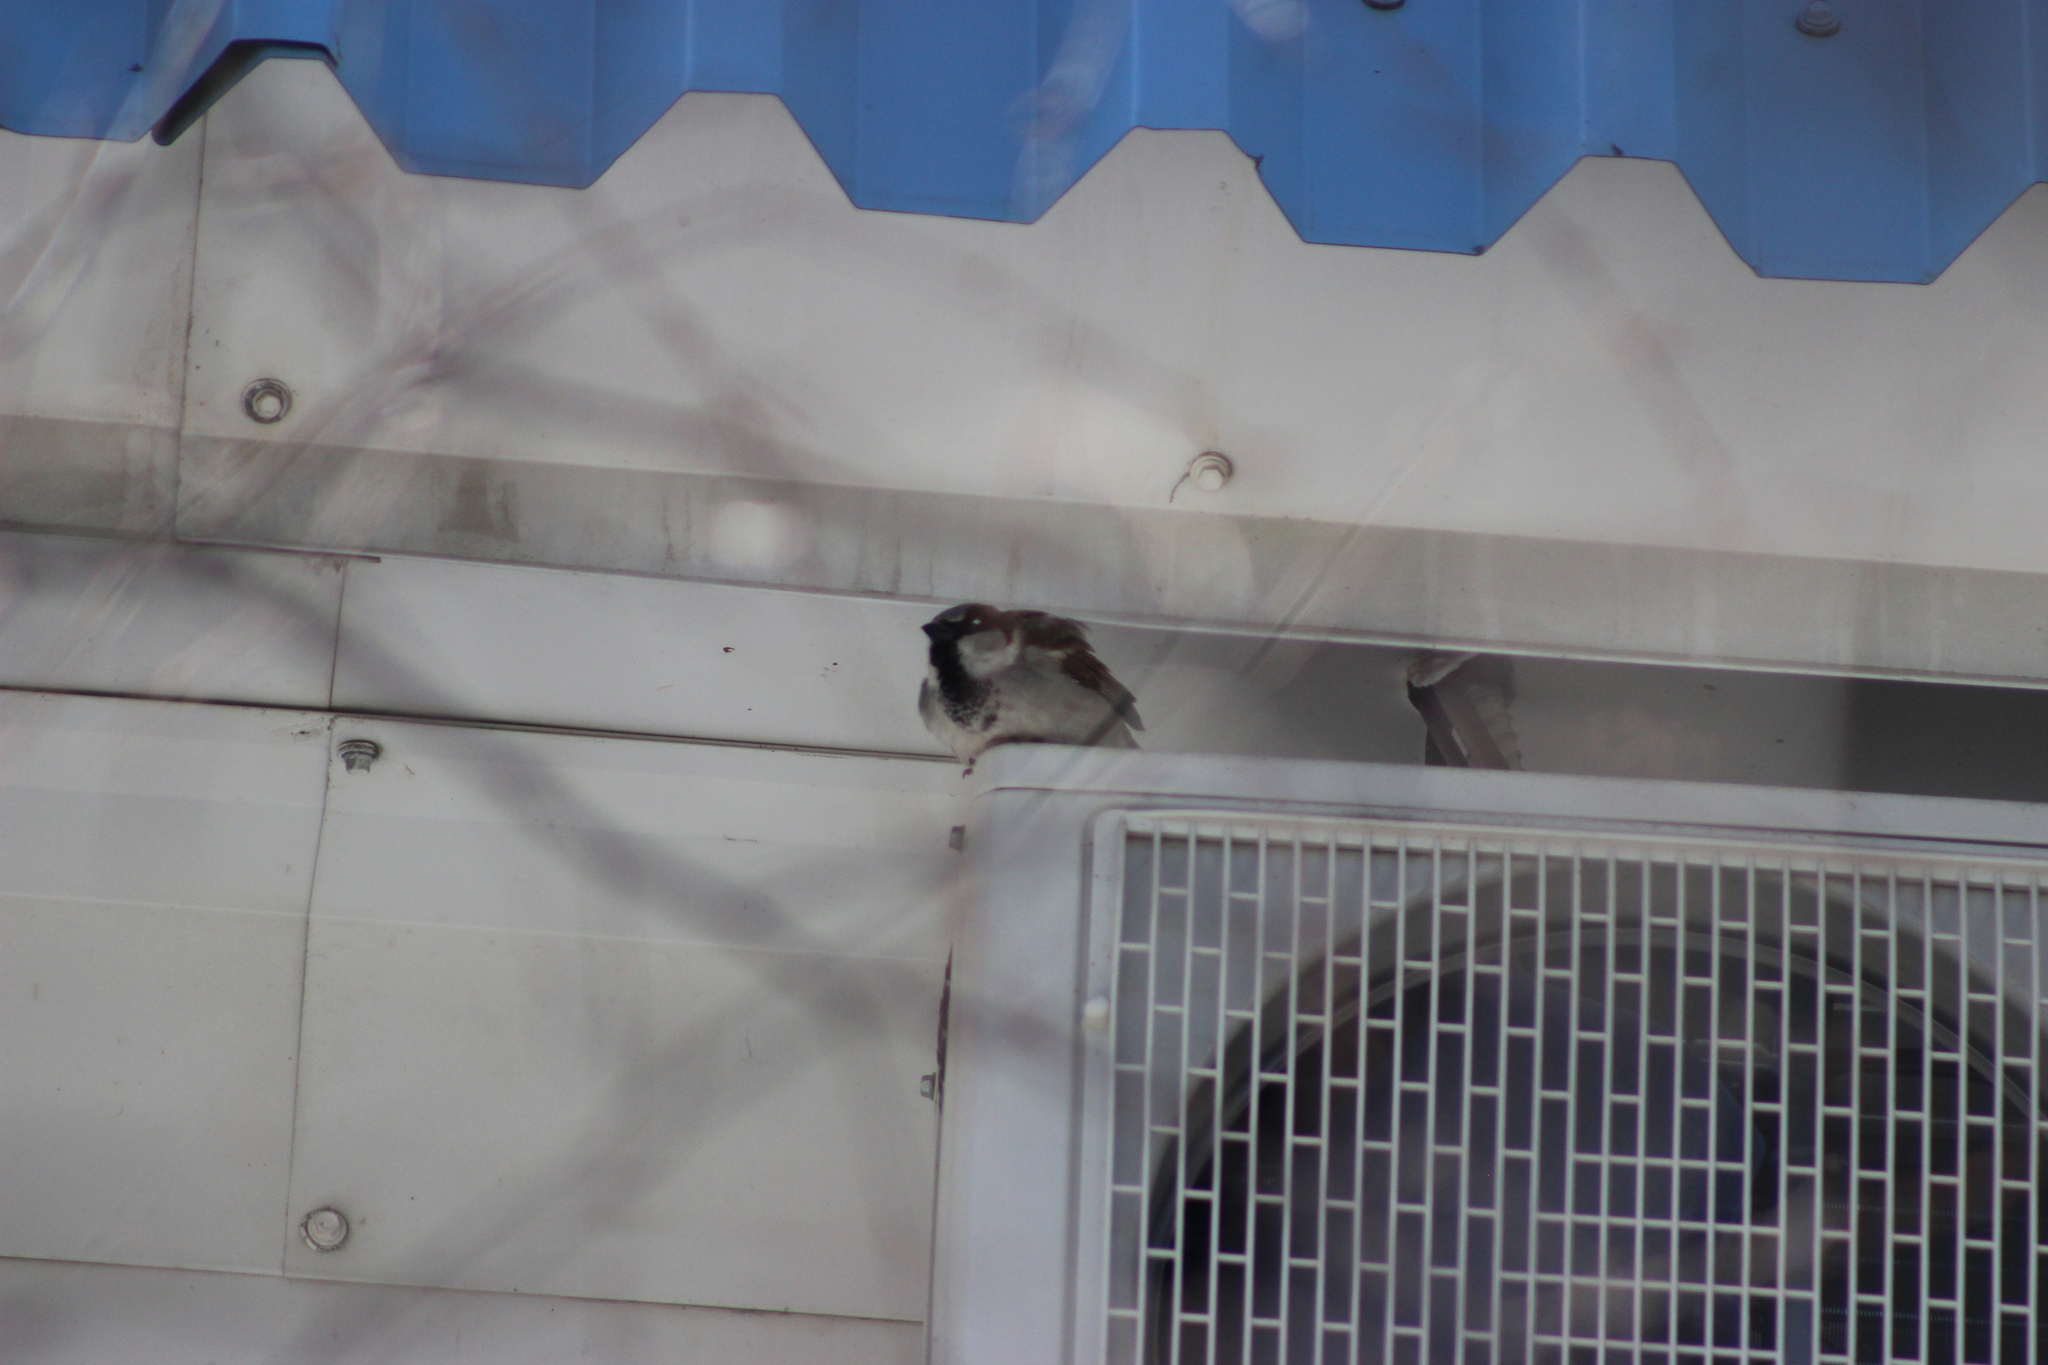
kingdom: Animalia
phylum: Chordata
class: Aves
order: Passeriformes
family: Passeridae
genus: Passer
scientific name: Passer domesticus
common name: House sparrow
